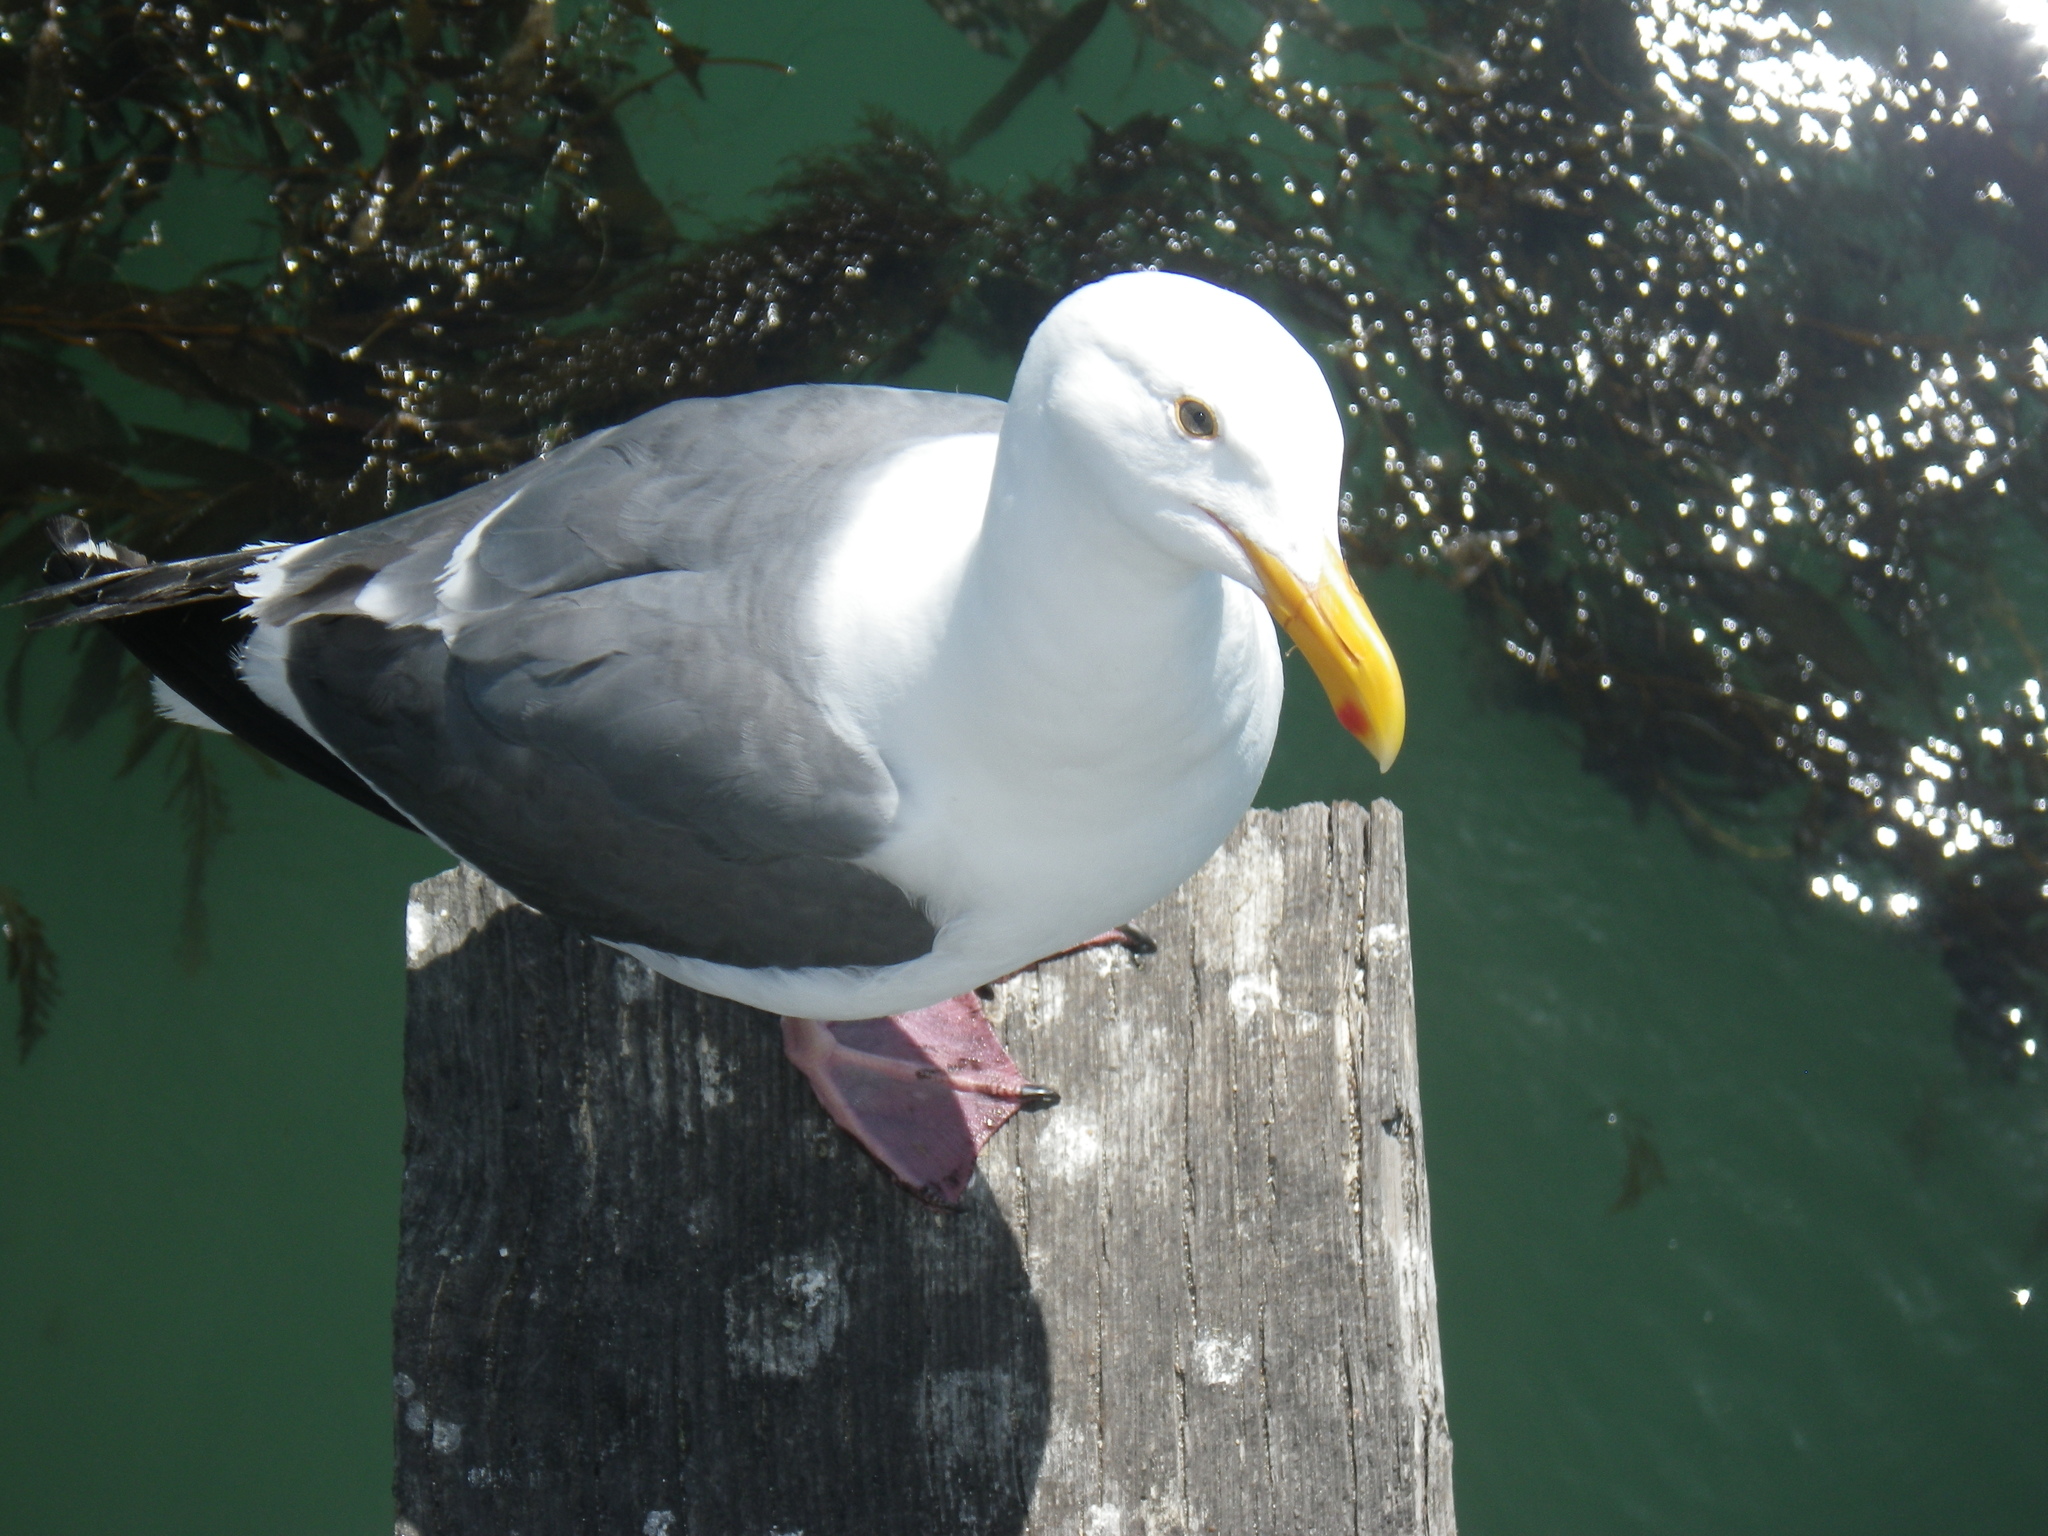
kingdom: Animalia
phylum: Chordata
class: Aves
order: Charadriiformes
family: Laridae
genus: Larus
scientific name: Larus occidentalis
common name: Western gull
